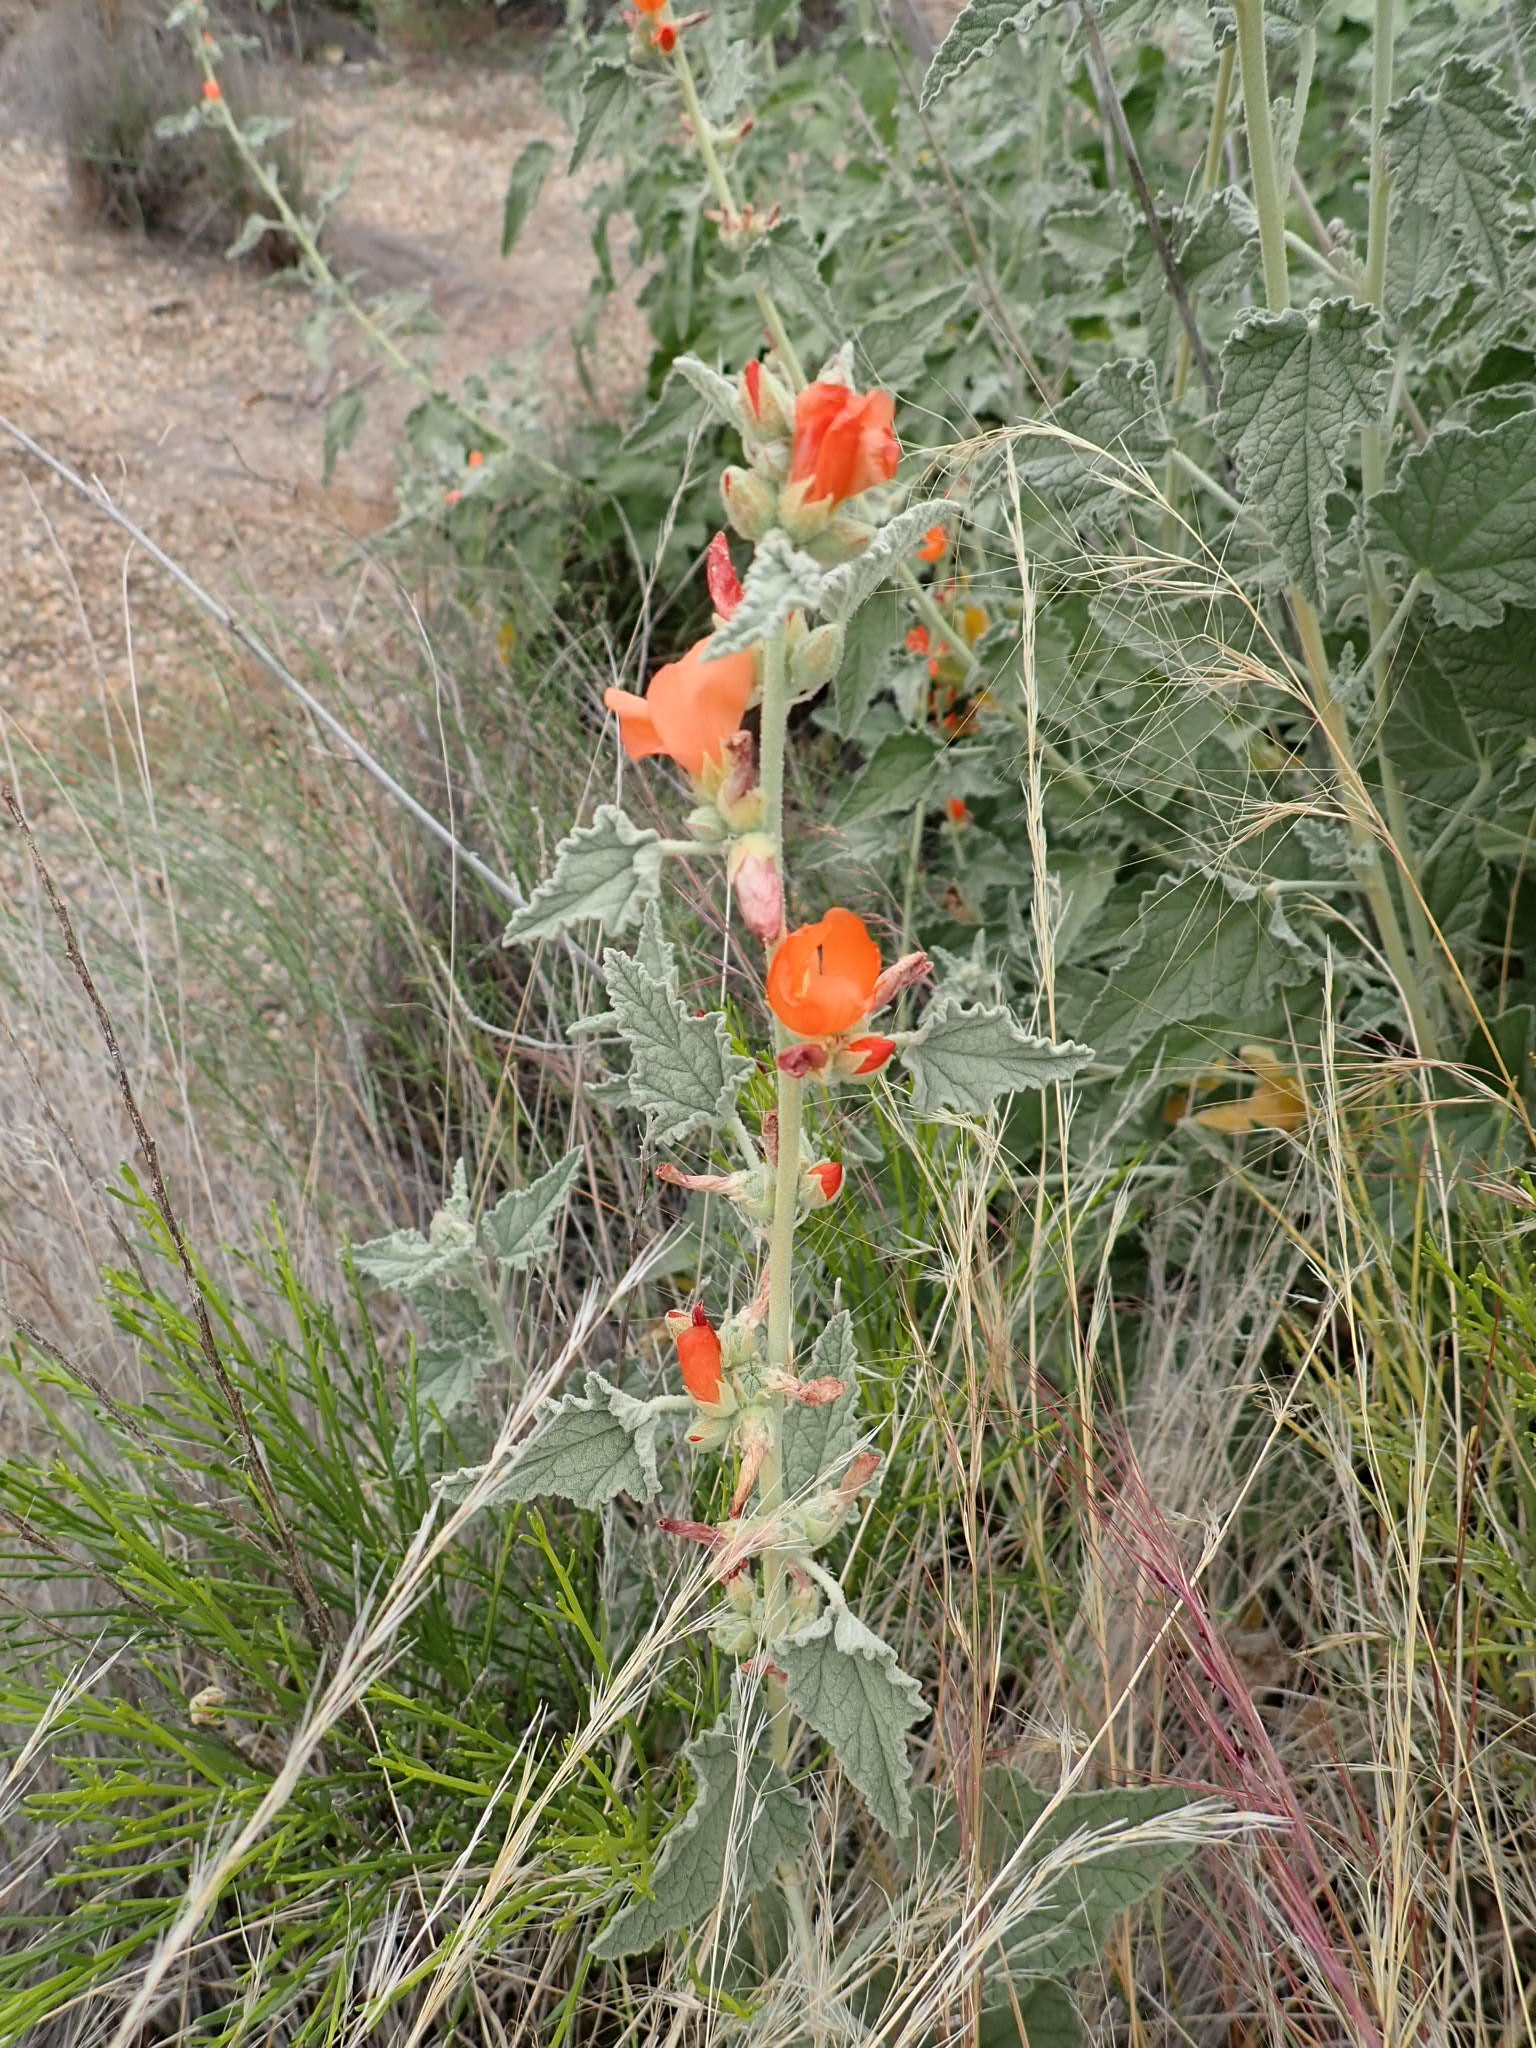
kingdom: Plantae
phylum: Tracheophyta
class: Magnoliopsida
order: Malvales
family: Malvaceae
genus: Sphaeralcea
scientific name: Sphaeralcea ambigua
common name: Apricot globe-mallow
